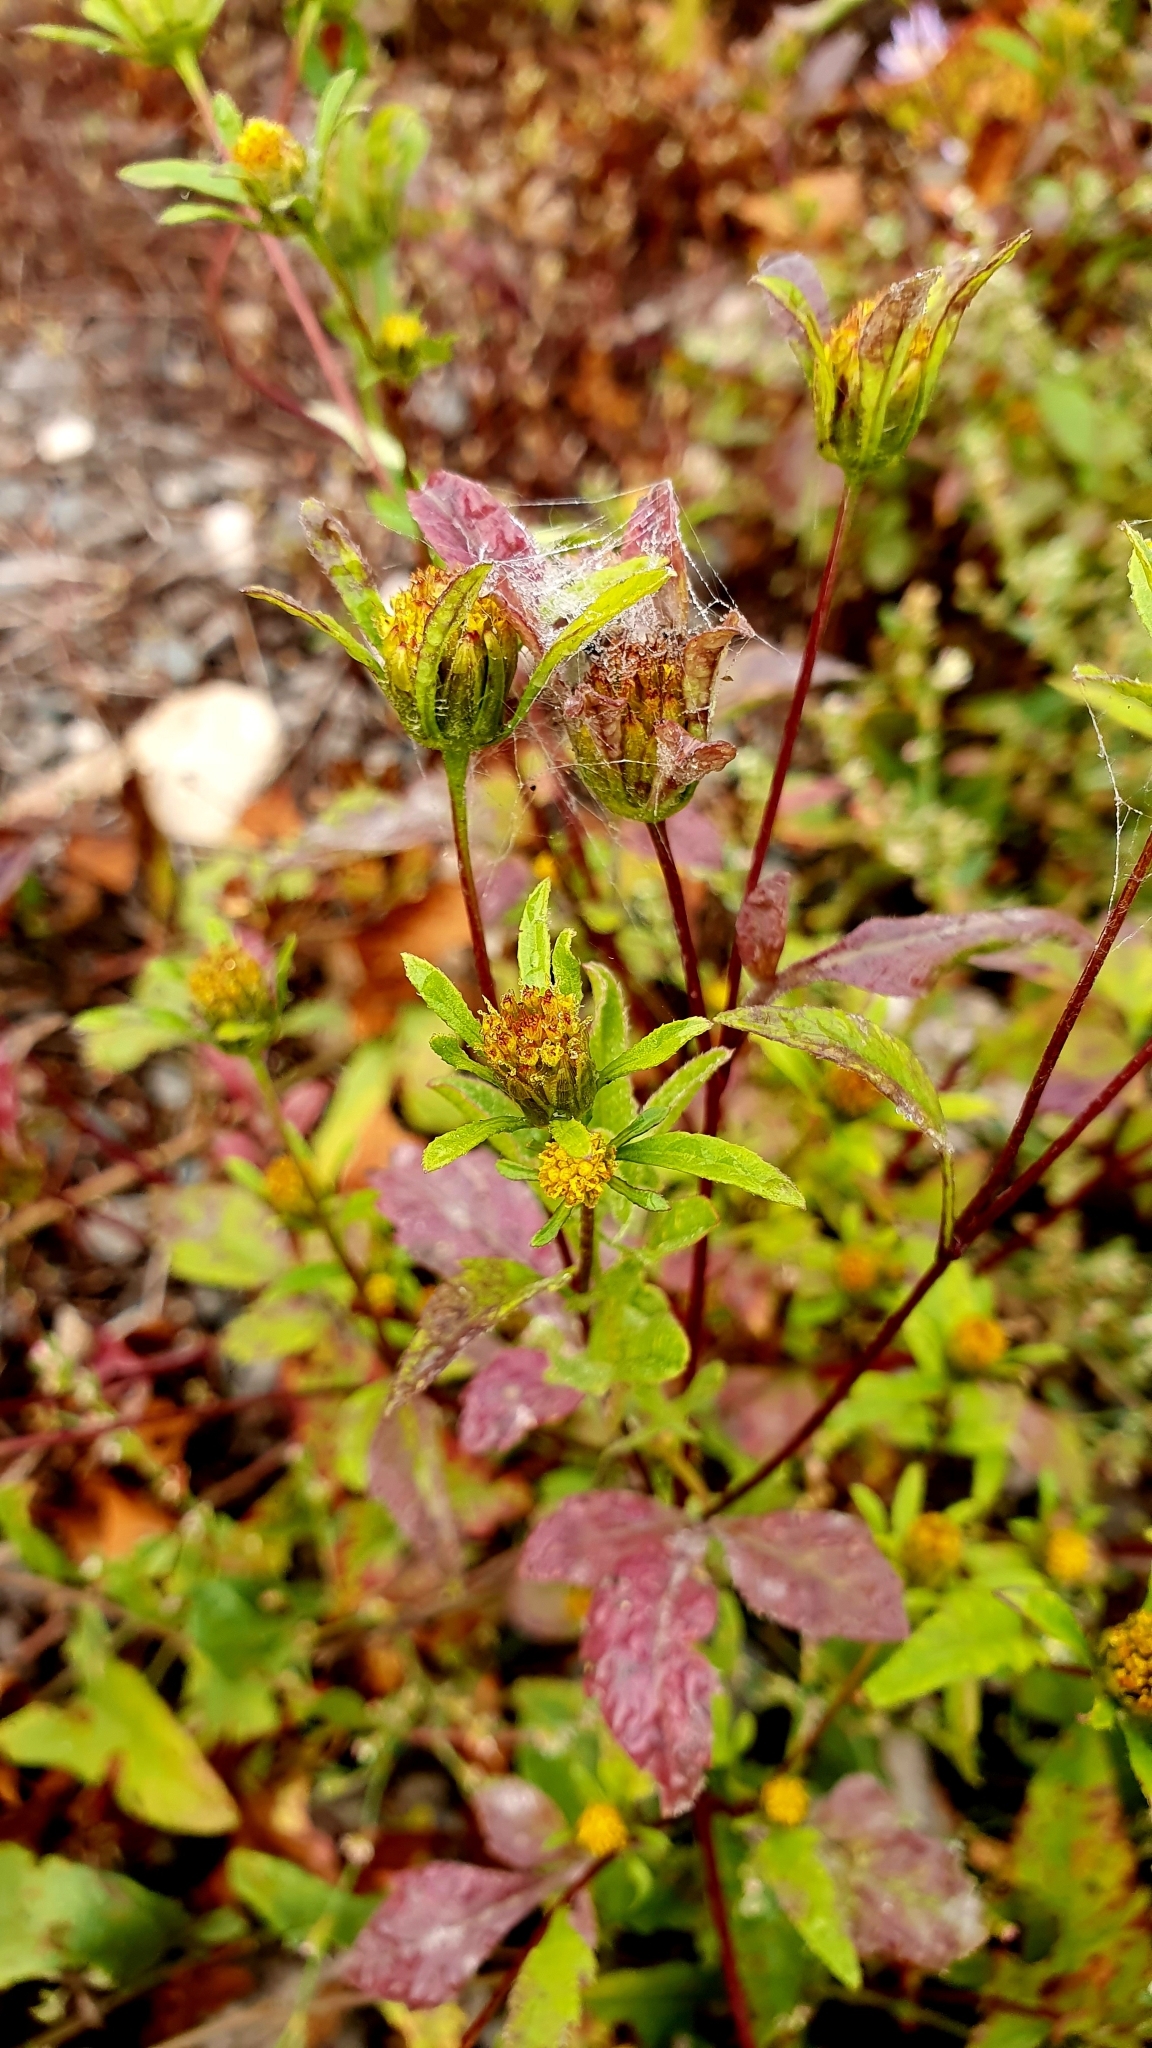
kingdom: Plantae
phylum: Tracheophyta
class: Magnoliopsida
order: Asterales
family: Asteraceae
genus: Bidens
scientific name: Bidens frondosa
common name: Beggarticks
